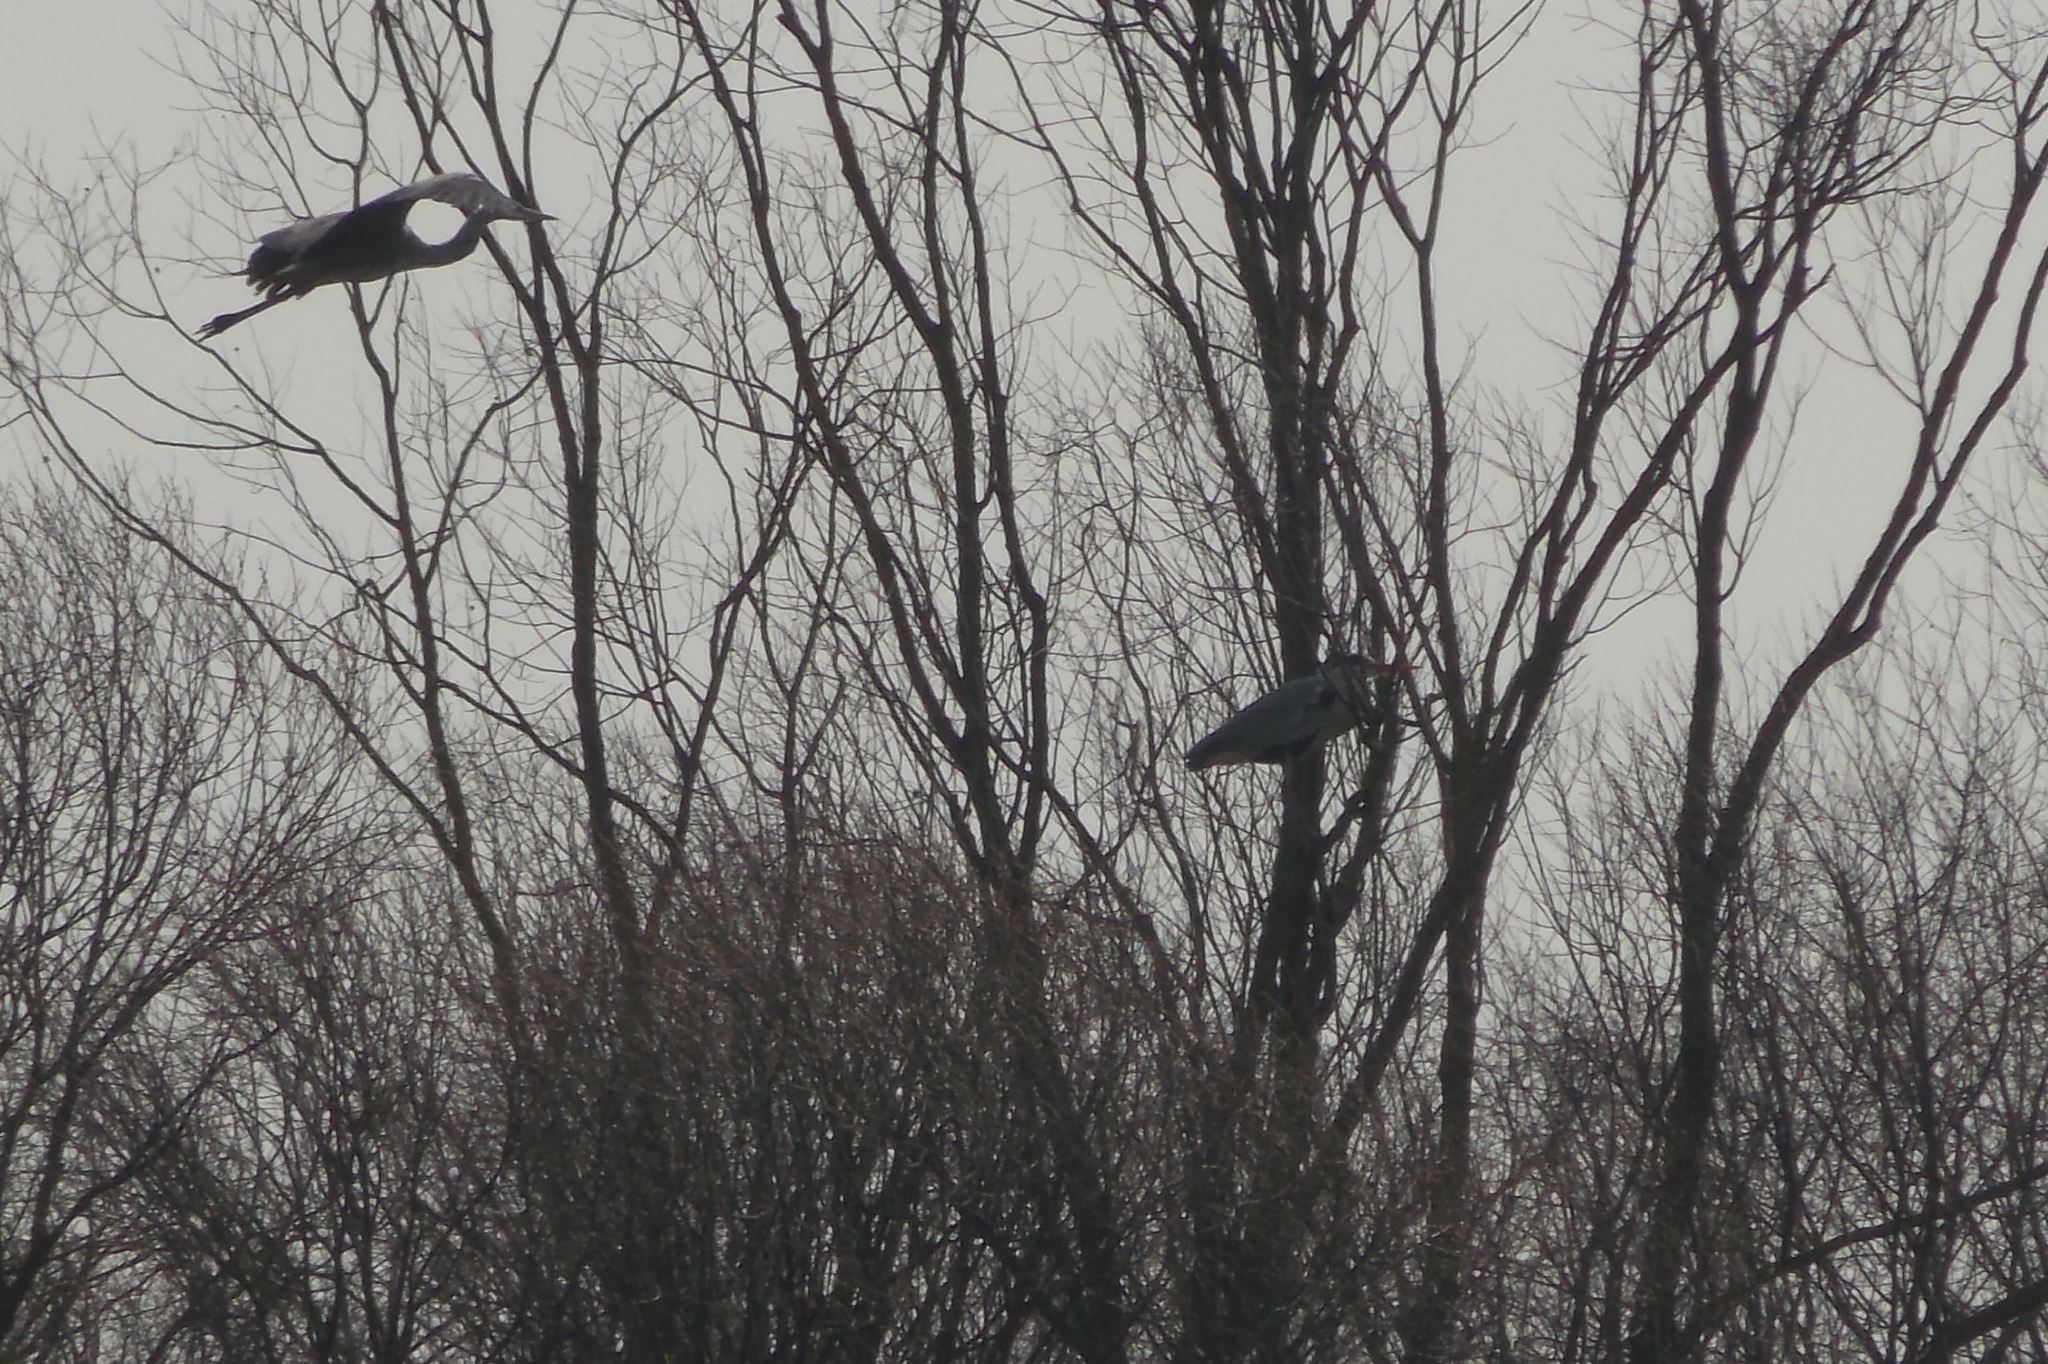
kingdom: Animalia
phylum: Chordata
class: Aves
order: Pelecaniformes
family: Ardeidae
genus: Ardea
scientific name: Ardea cinerea
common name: Grey heron
